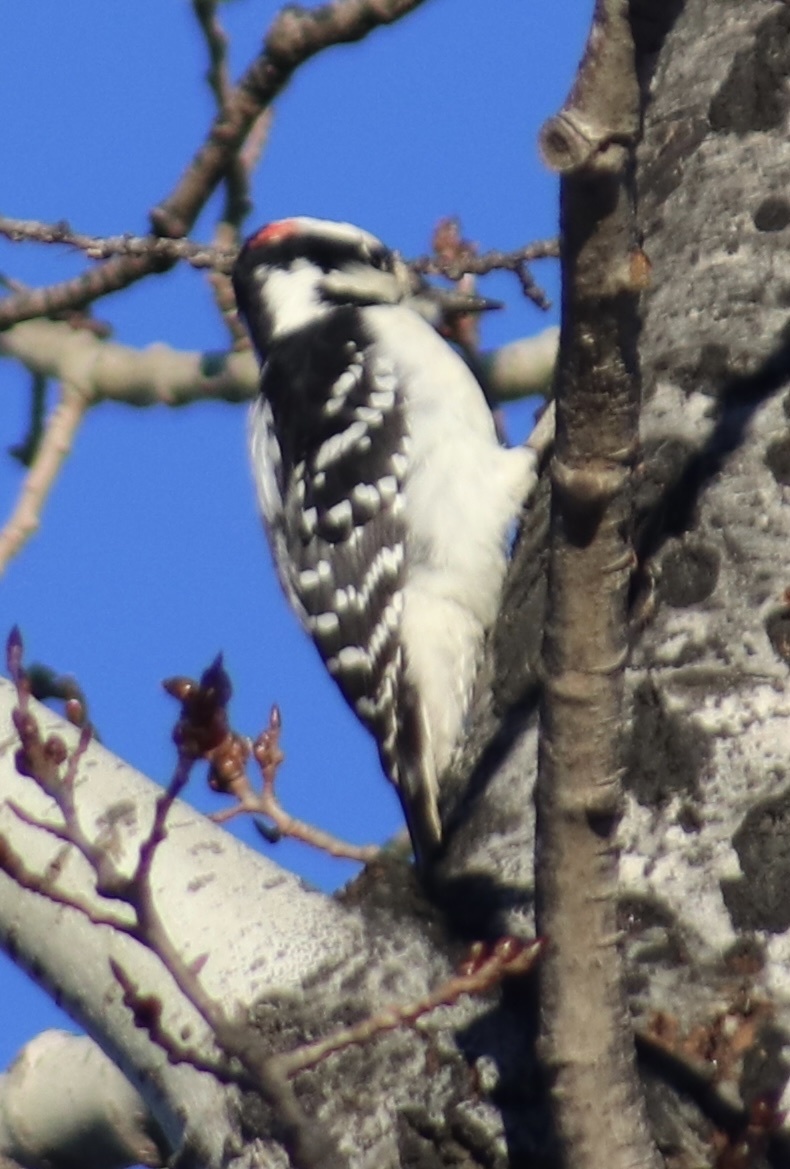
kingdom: Animalia
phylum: Chordata
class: Aves
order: Piciformes
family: Picidae
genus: Leuconotopicus
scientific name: Leuconotopicus villosus
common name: Hairy woodpecker
